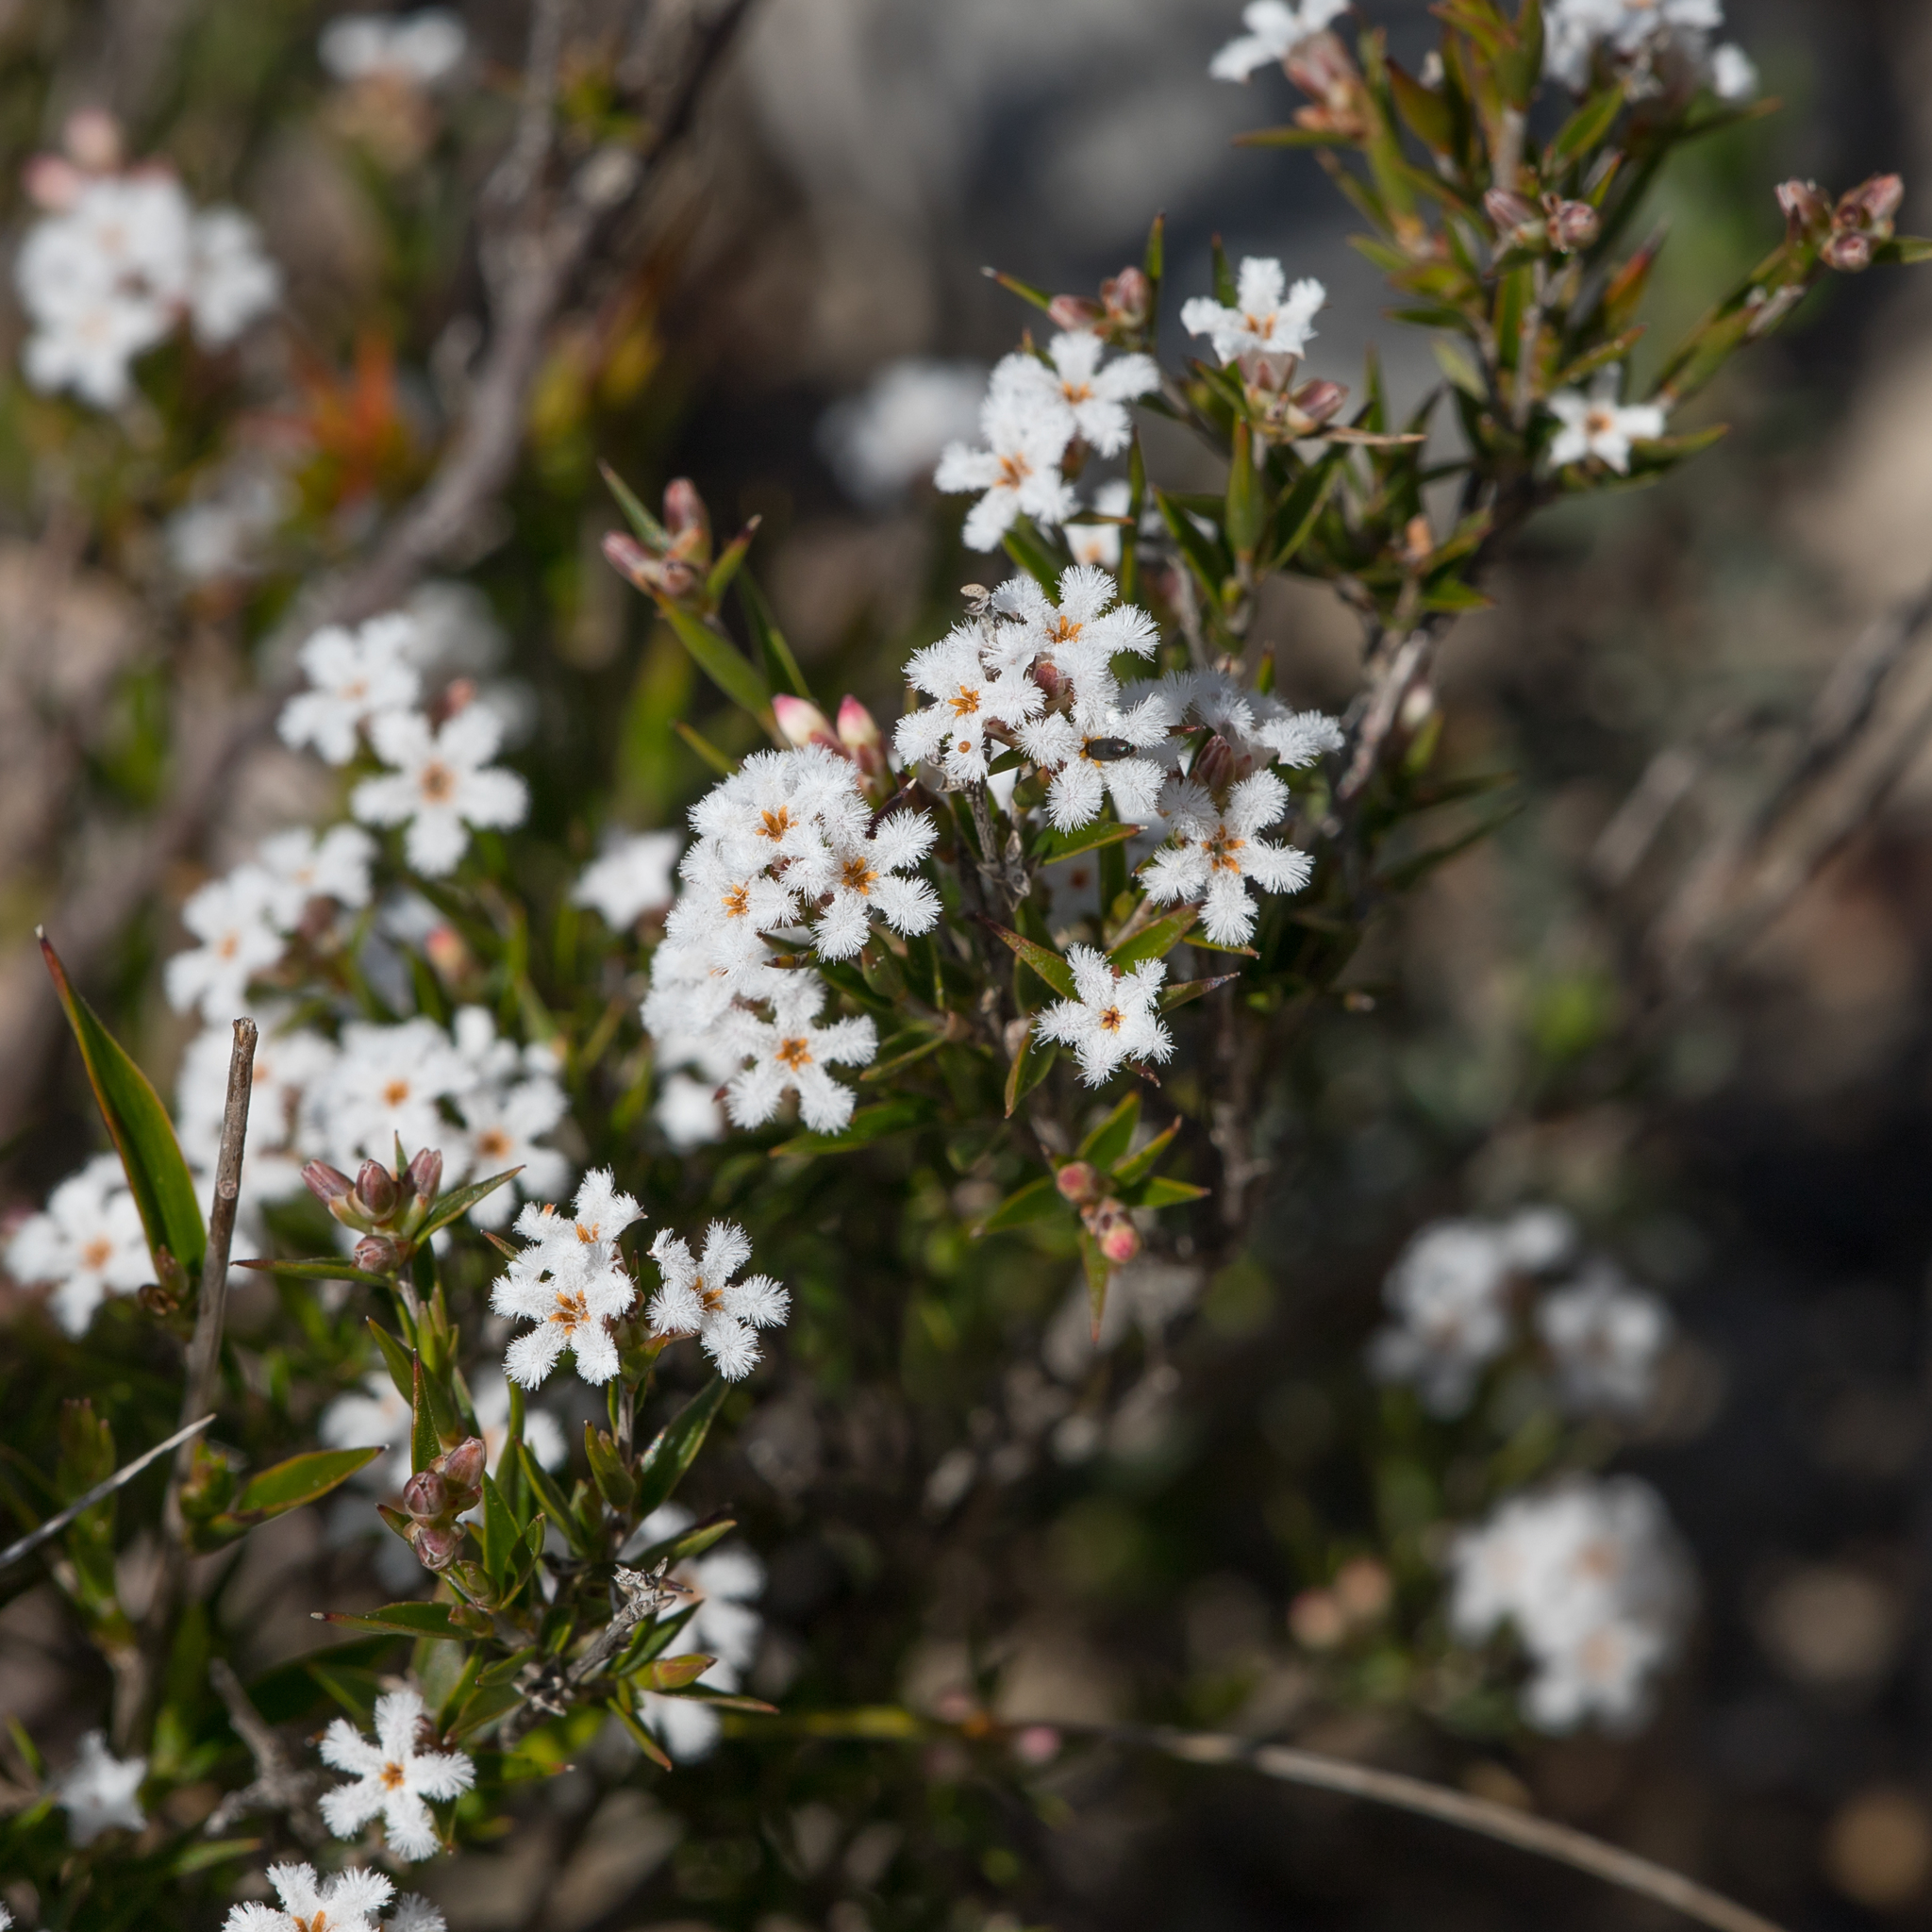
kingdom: Plantae
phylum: Tracheophyta
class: Magnoliopsida
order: Ericales
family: Ericaceae
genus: Leucopogon
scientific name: Leucopogon virgatus
